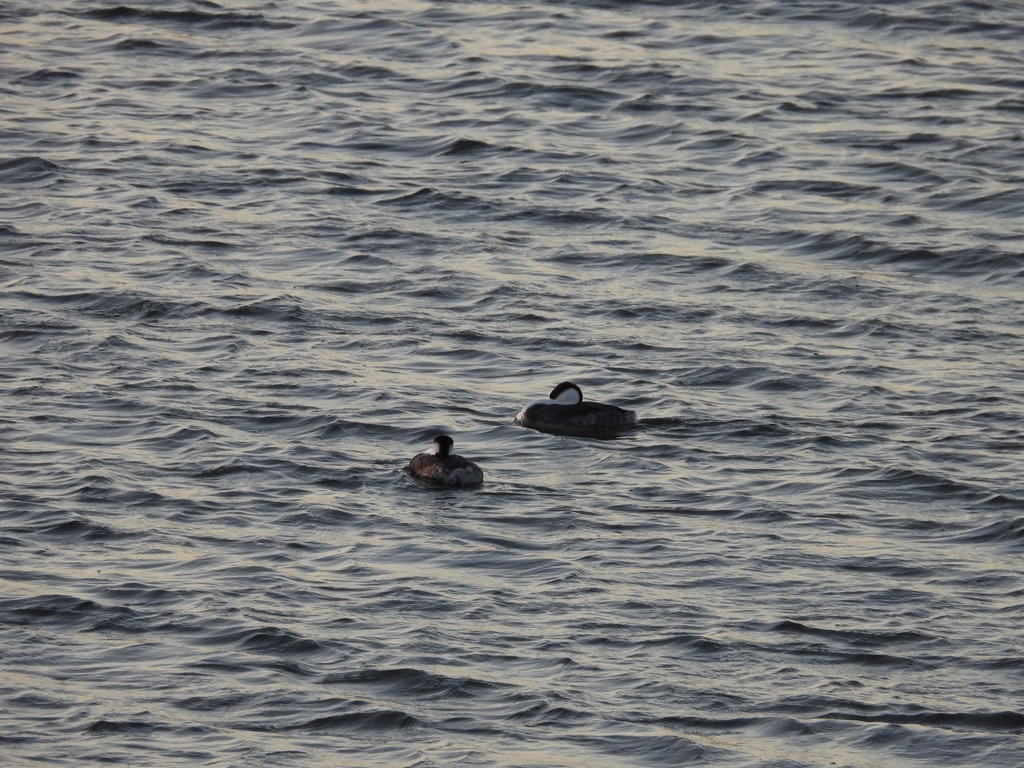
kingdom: Animalia
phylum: Chordata
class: Aves
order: Podicipediformes
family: Podicipedidae
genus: Aechmophorus
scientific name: Aechmophorus occidentalis
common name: Western grebe
